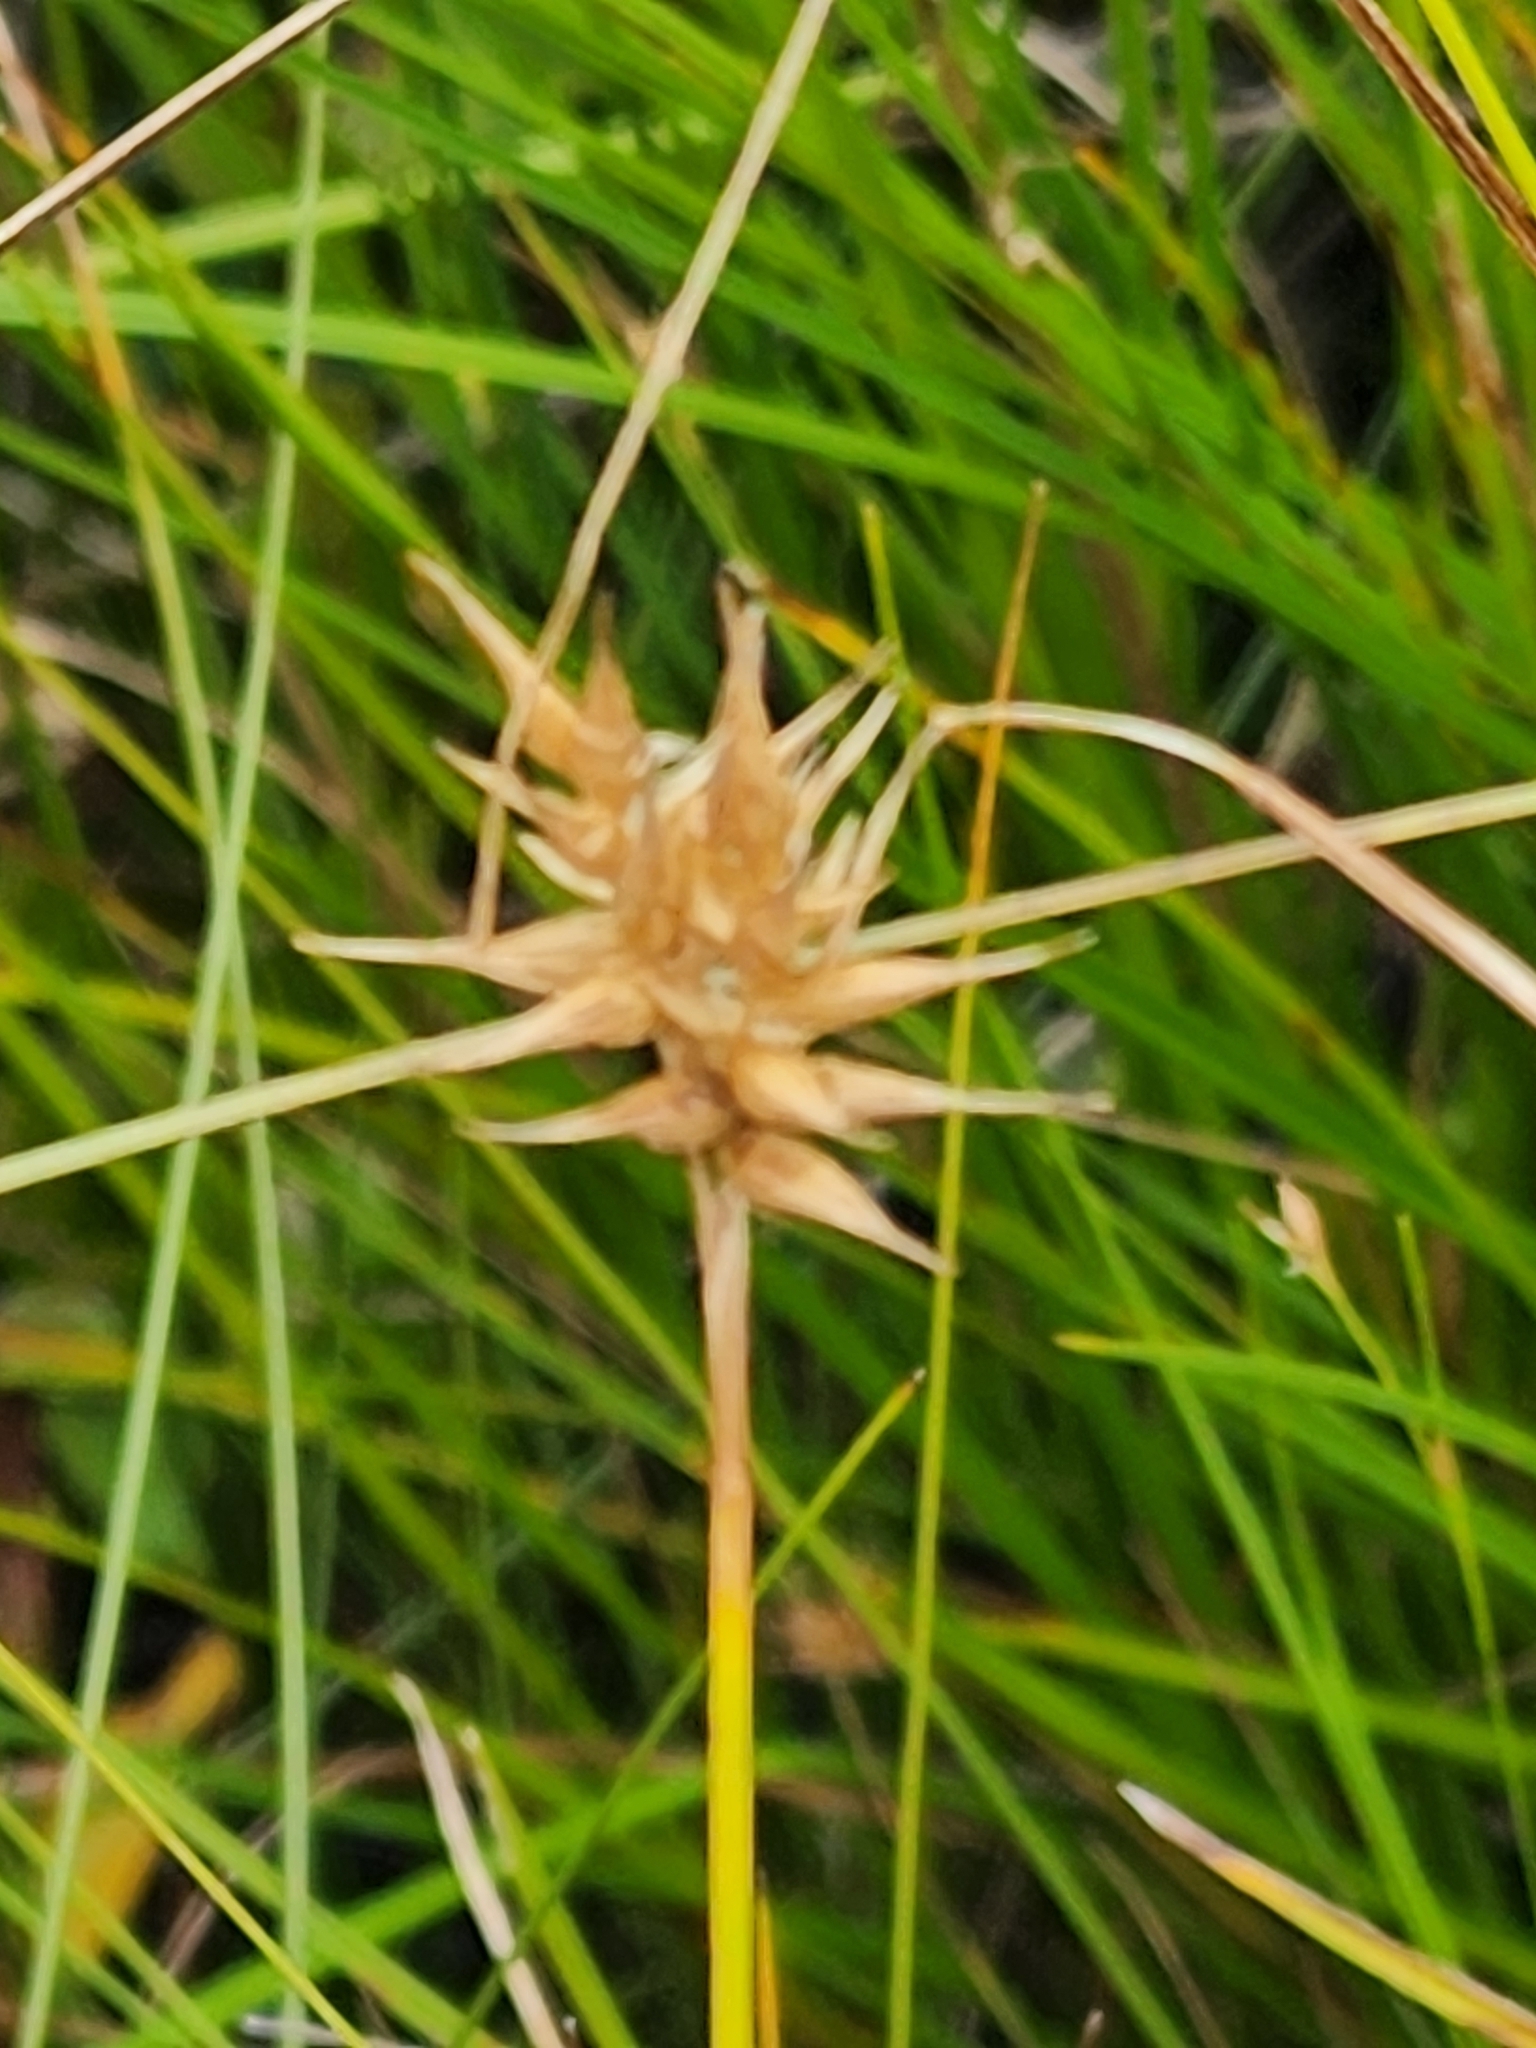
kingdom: Plantae
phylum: Tracheophyta
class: Liliopsida
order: Poales
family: Cyperaceae
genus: Carex
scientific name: Carex michauxiana
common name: Michaux's sedge
